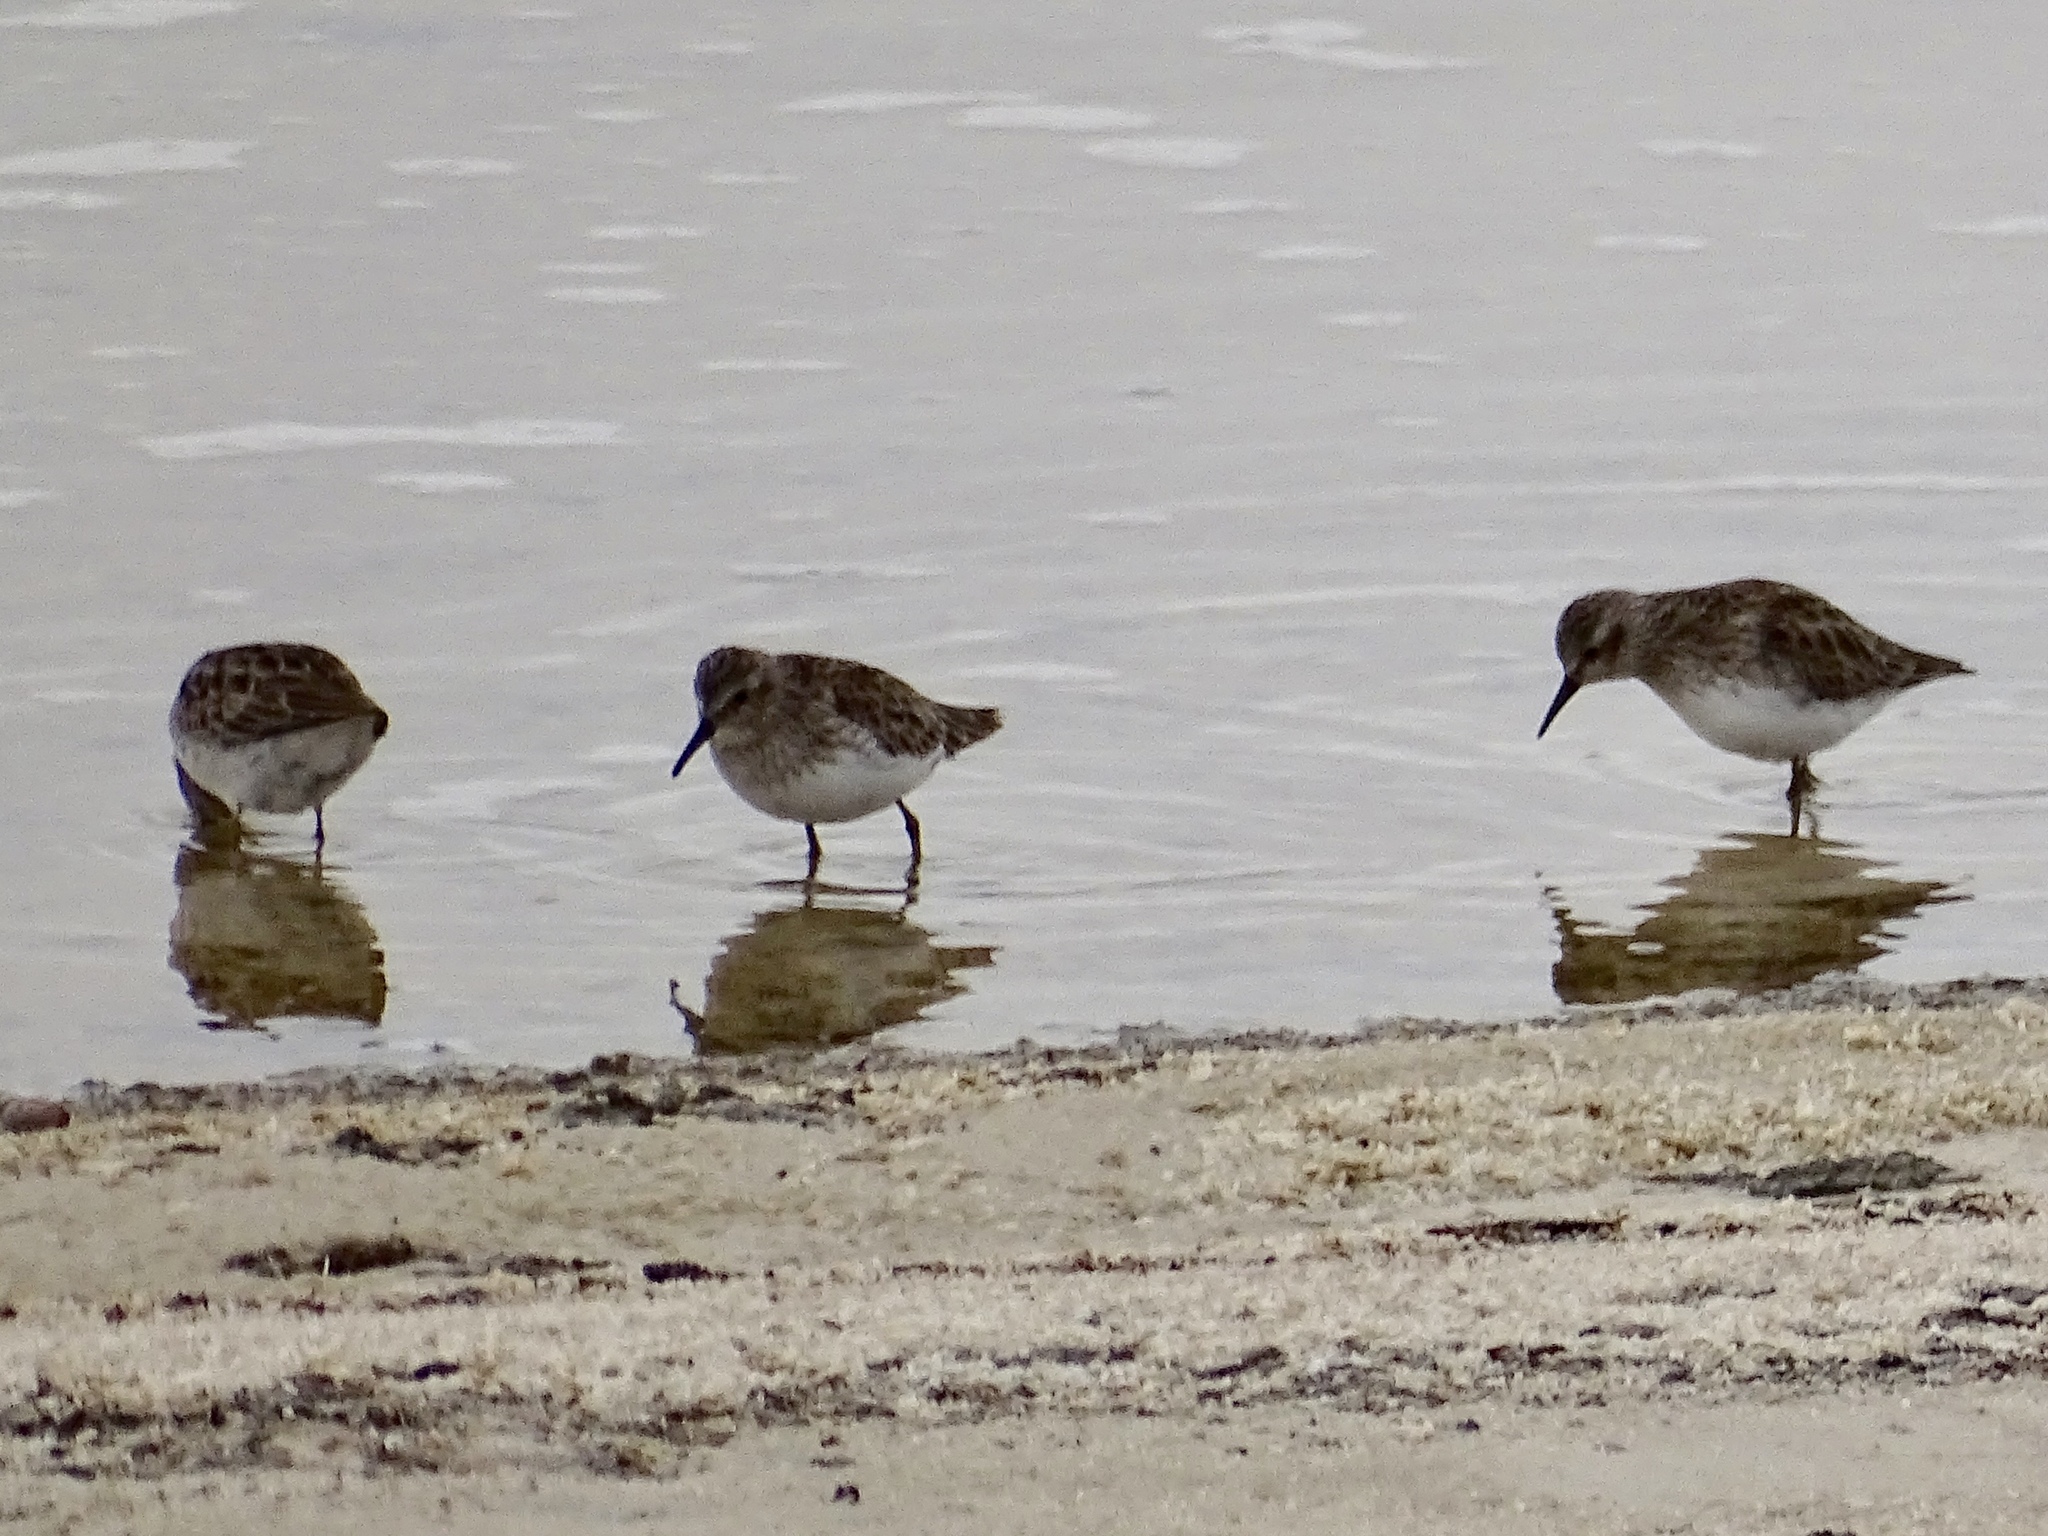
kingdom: Animalia
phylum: Chordata
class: Aves
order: Charadriiformes
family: Scolopacidae
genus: Calidris
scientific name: Calidris minutilla
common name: Least sandpiper
